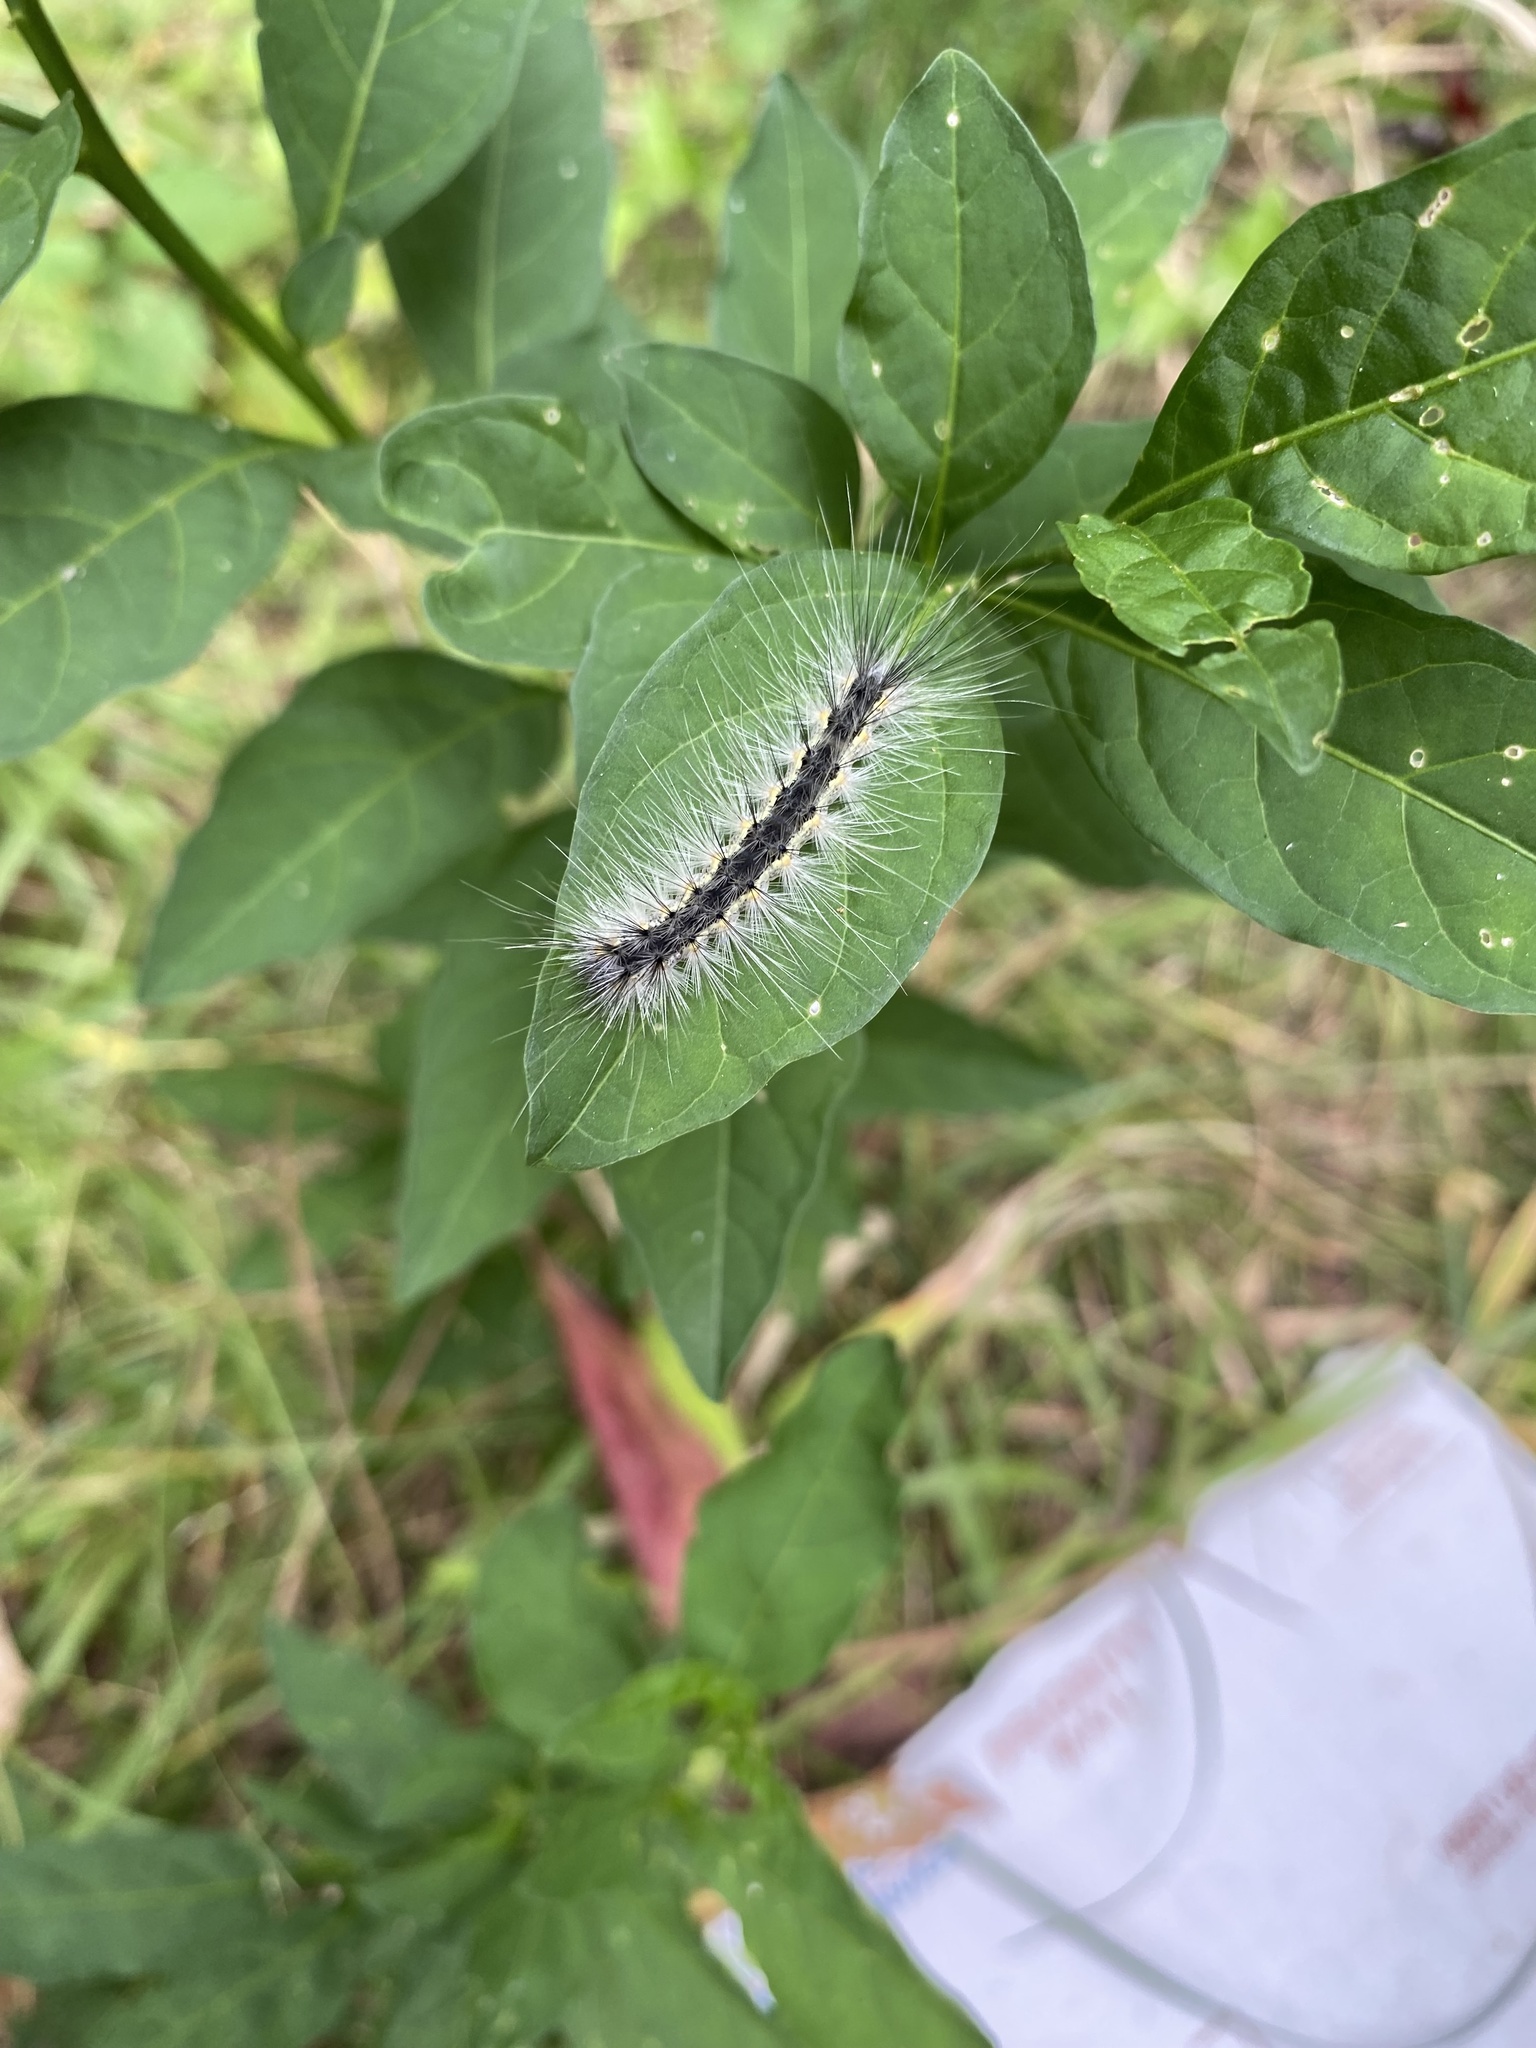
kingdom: Animalia
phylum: Arthropoda
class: Insecta
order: Lepidoptera
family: Erebidae
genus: Hyphantria
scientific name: Hyphantria cunea
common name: American white moth
